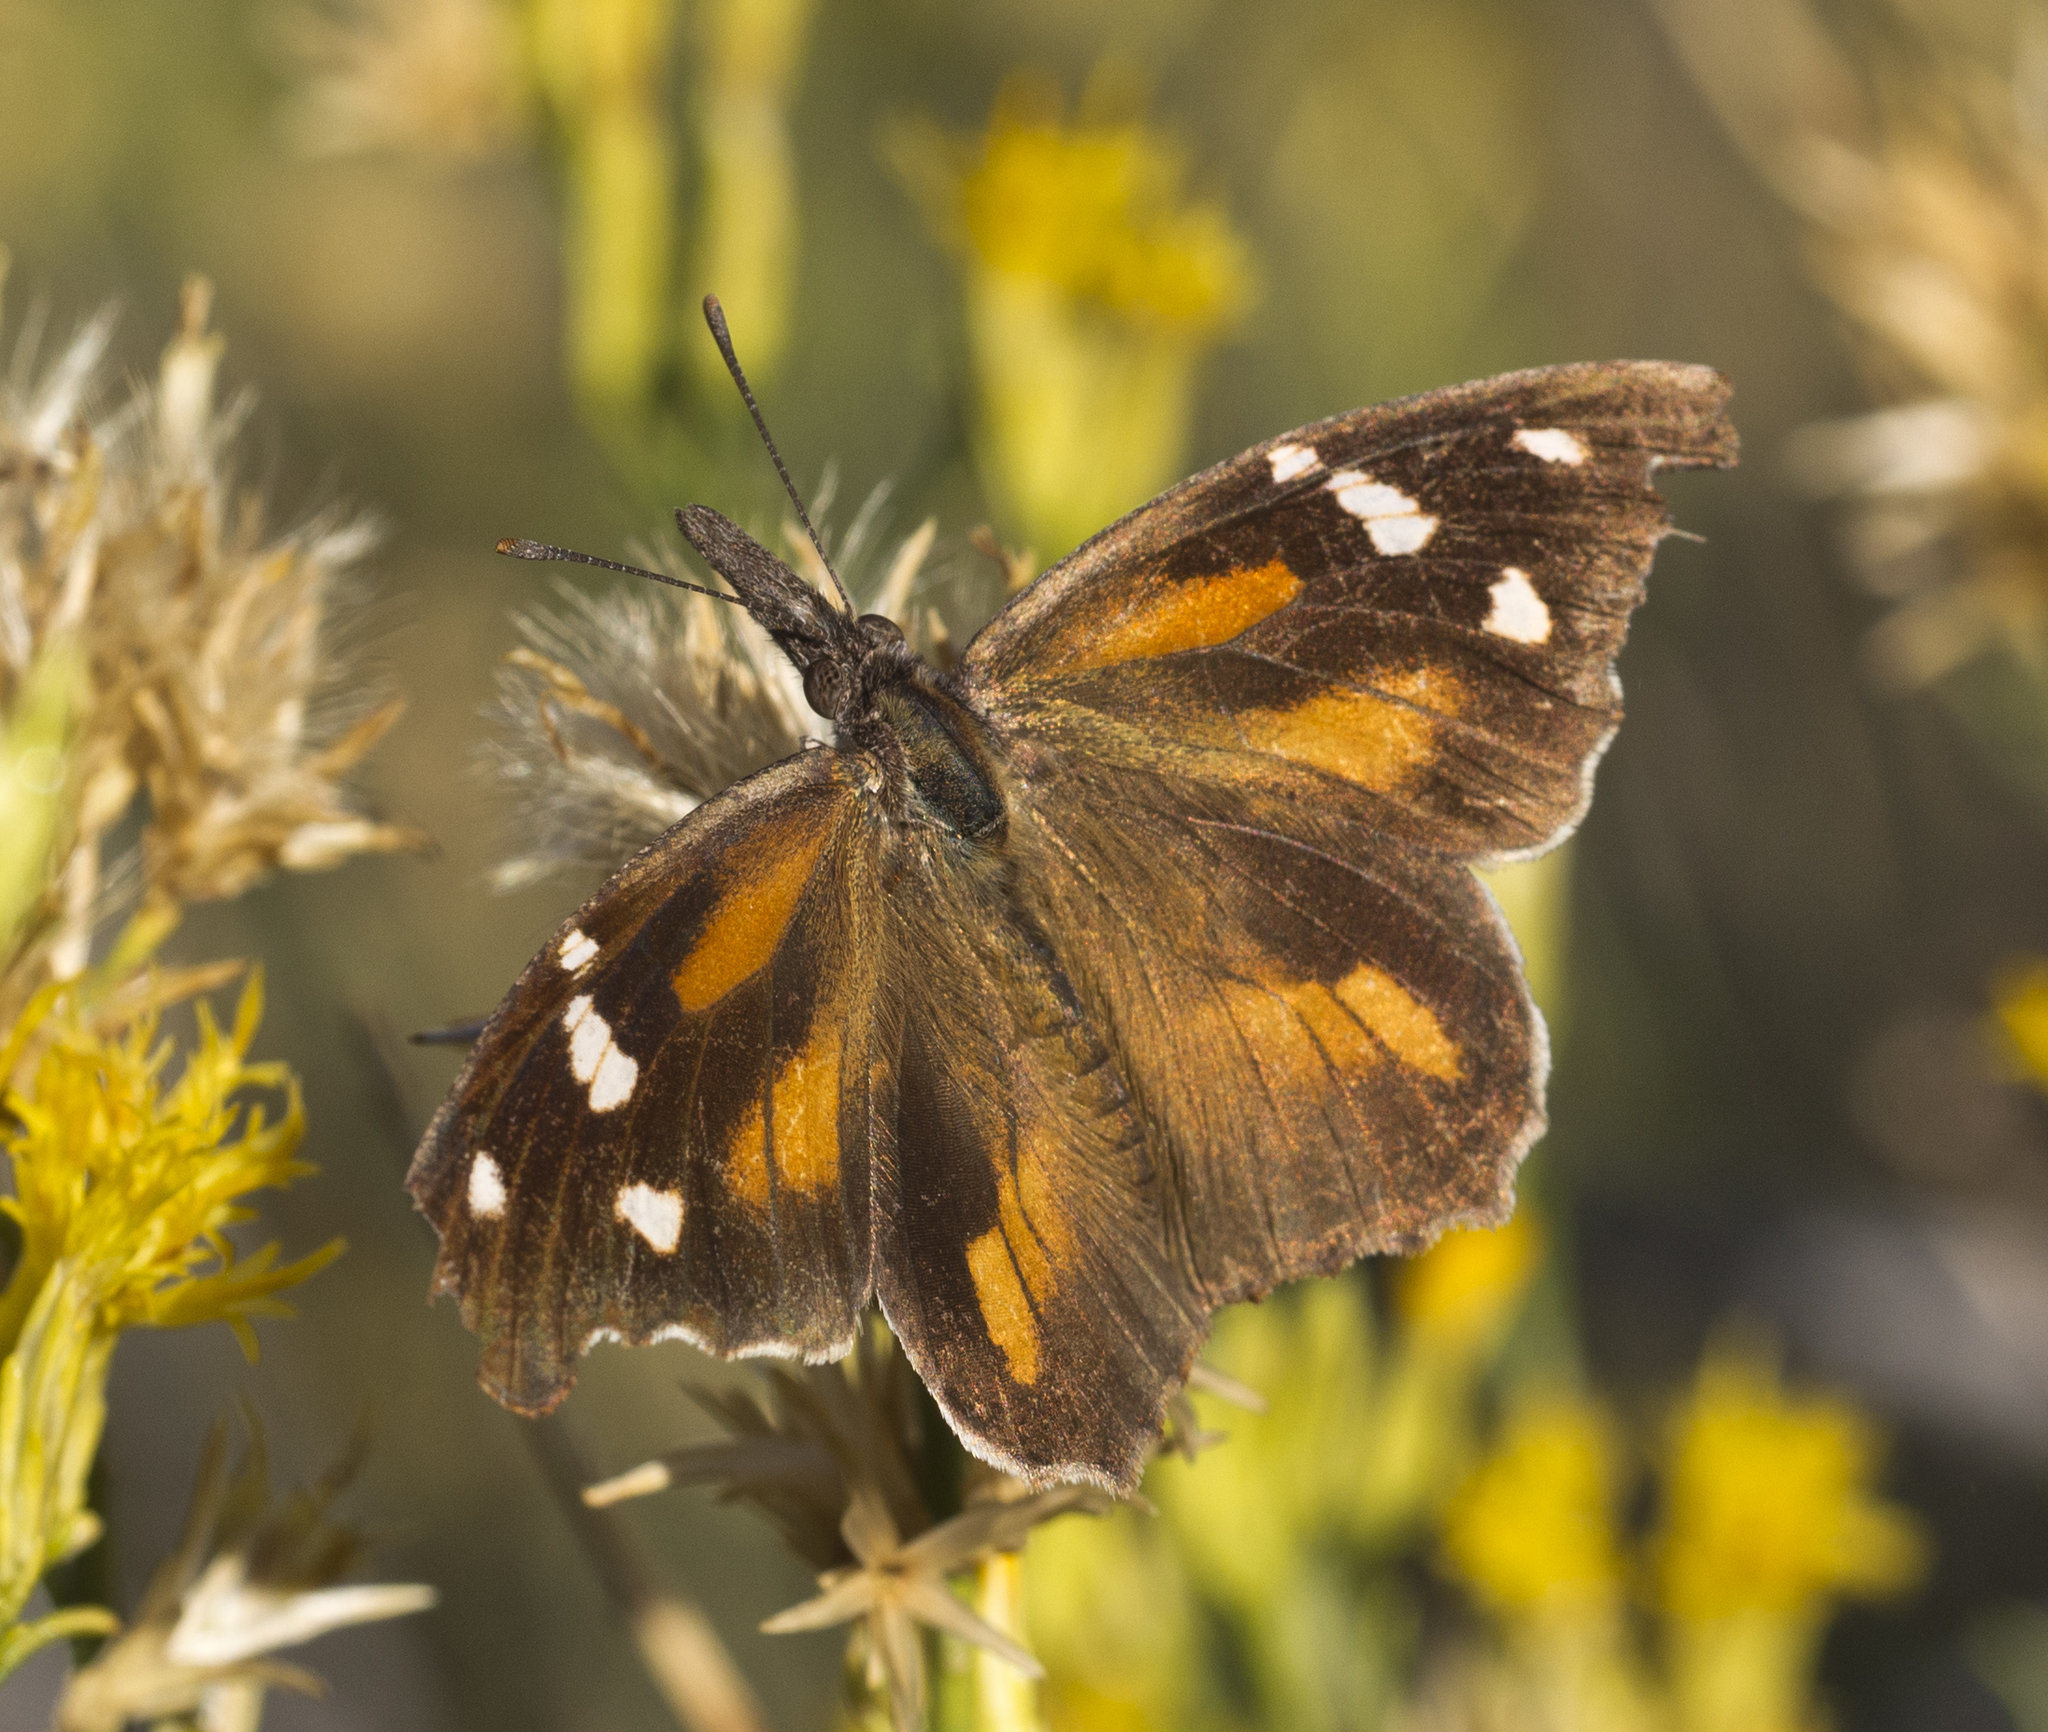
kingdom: Animalia
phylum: Arthropoda
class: Insecta
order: Lepidoptera
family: Nymphalidae
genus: Libytheana
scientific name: Libytheana carinenta
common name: American snout
